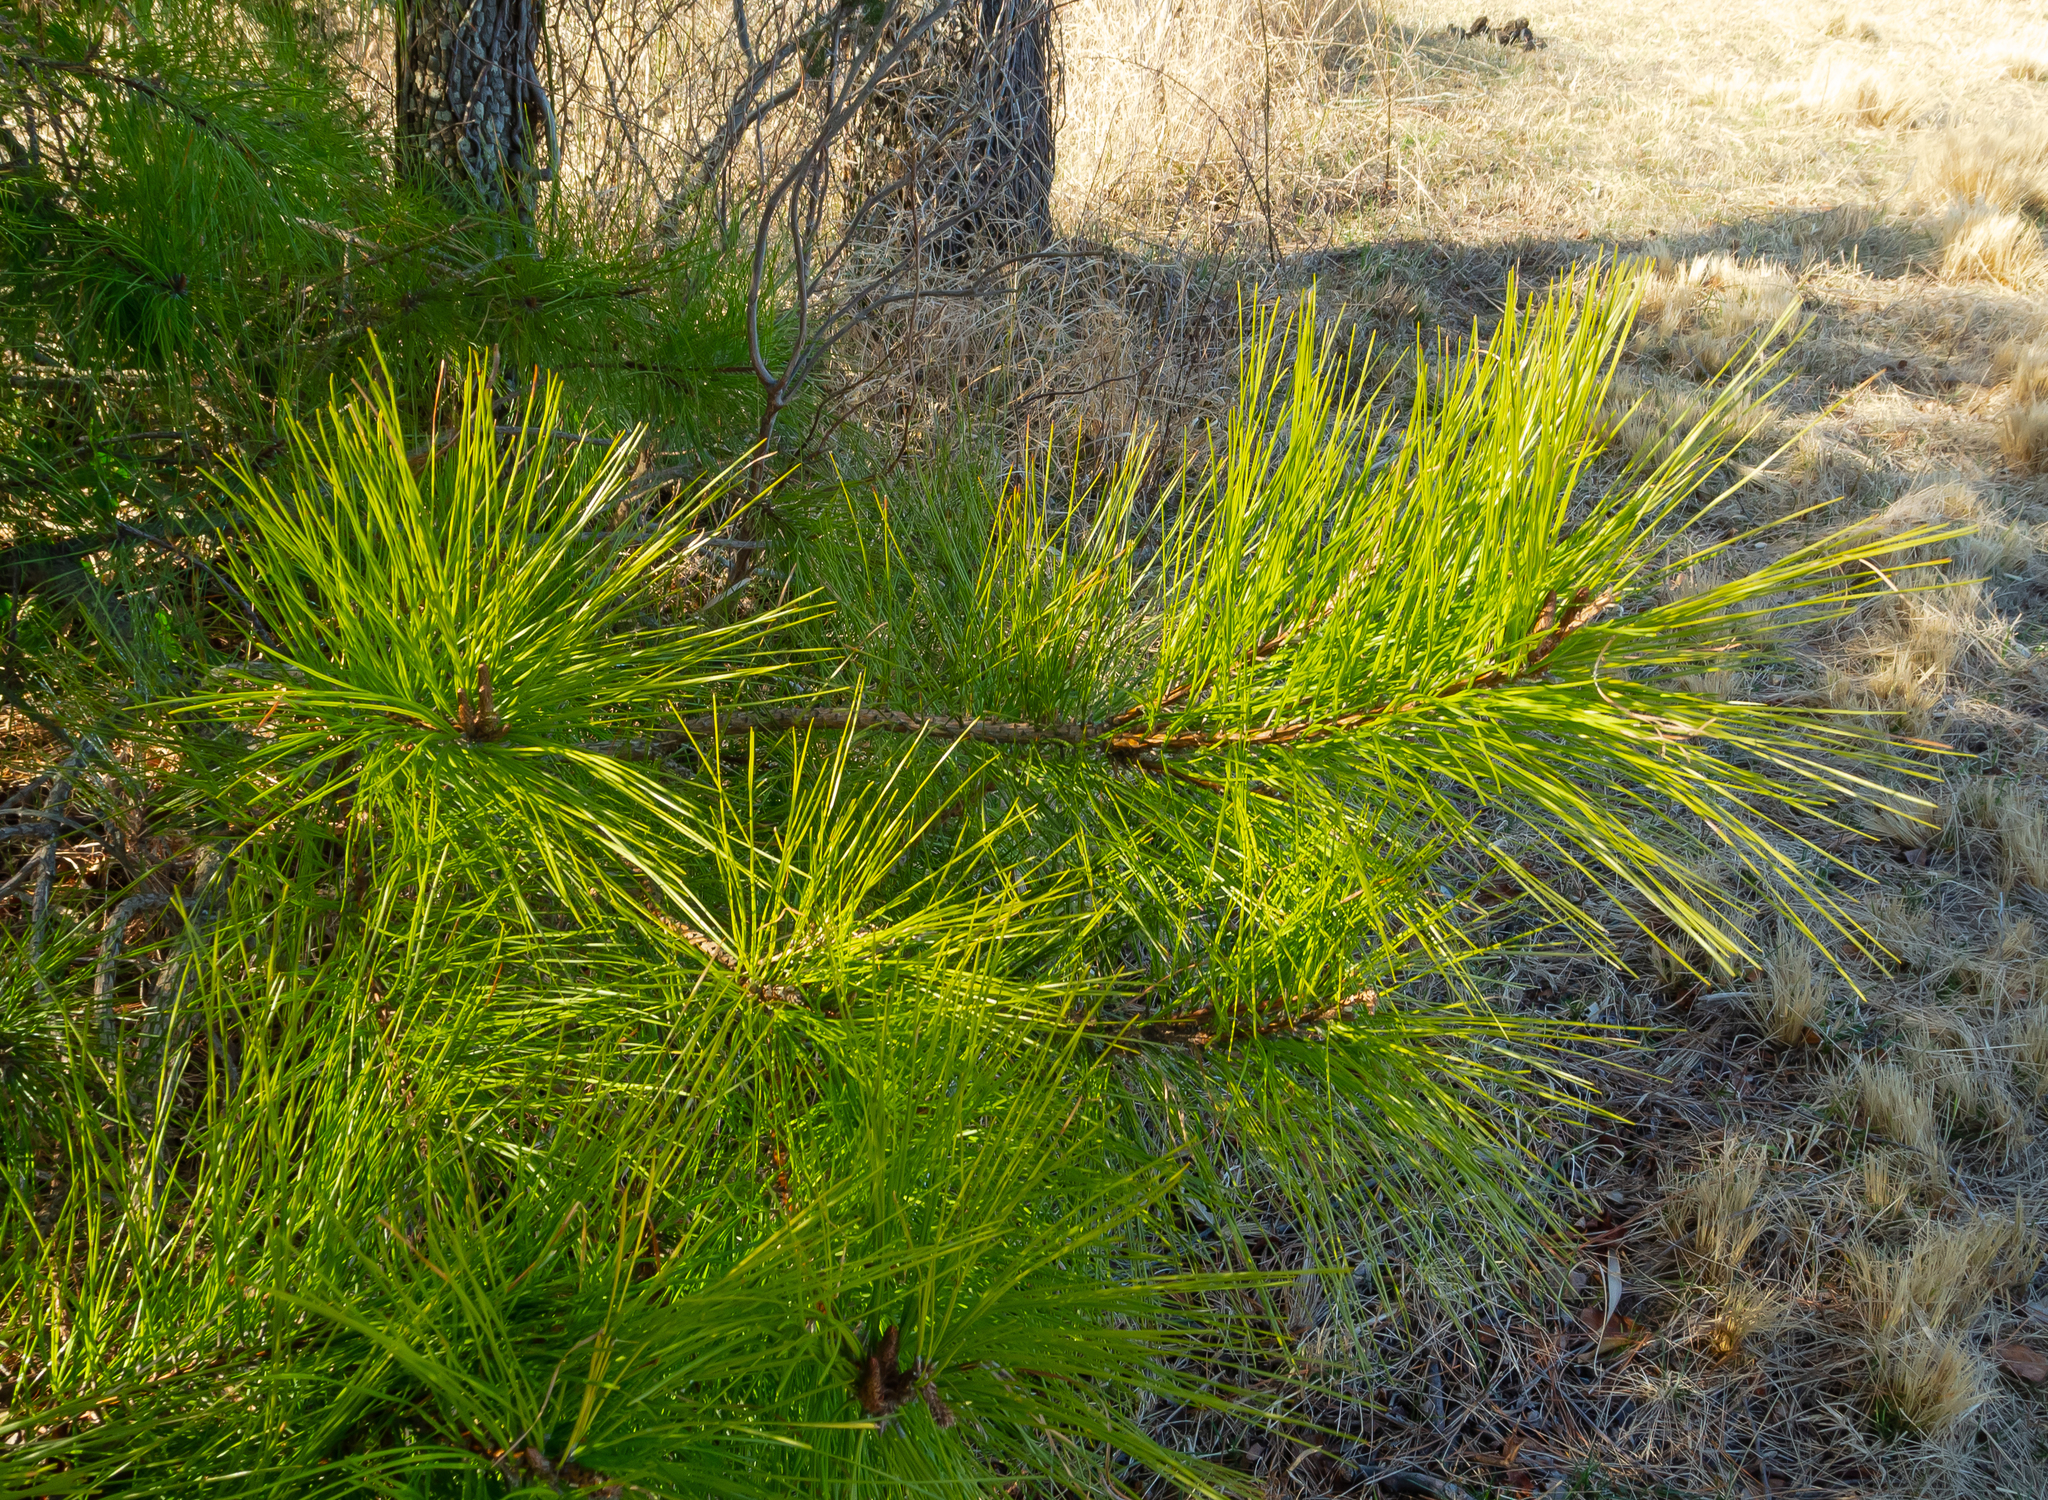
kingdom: Plantae
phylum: Tracheophyta
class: Pinopsida
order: Pinales
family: Pinaceae
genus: Pinus
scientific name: Pinus taeda
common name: Loblolly pine
